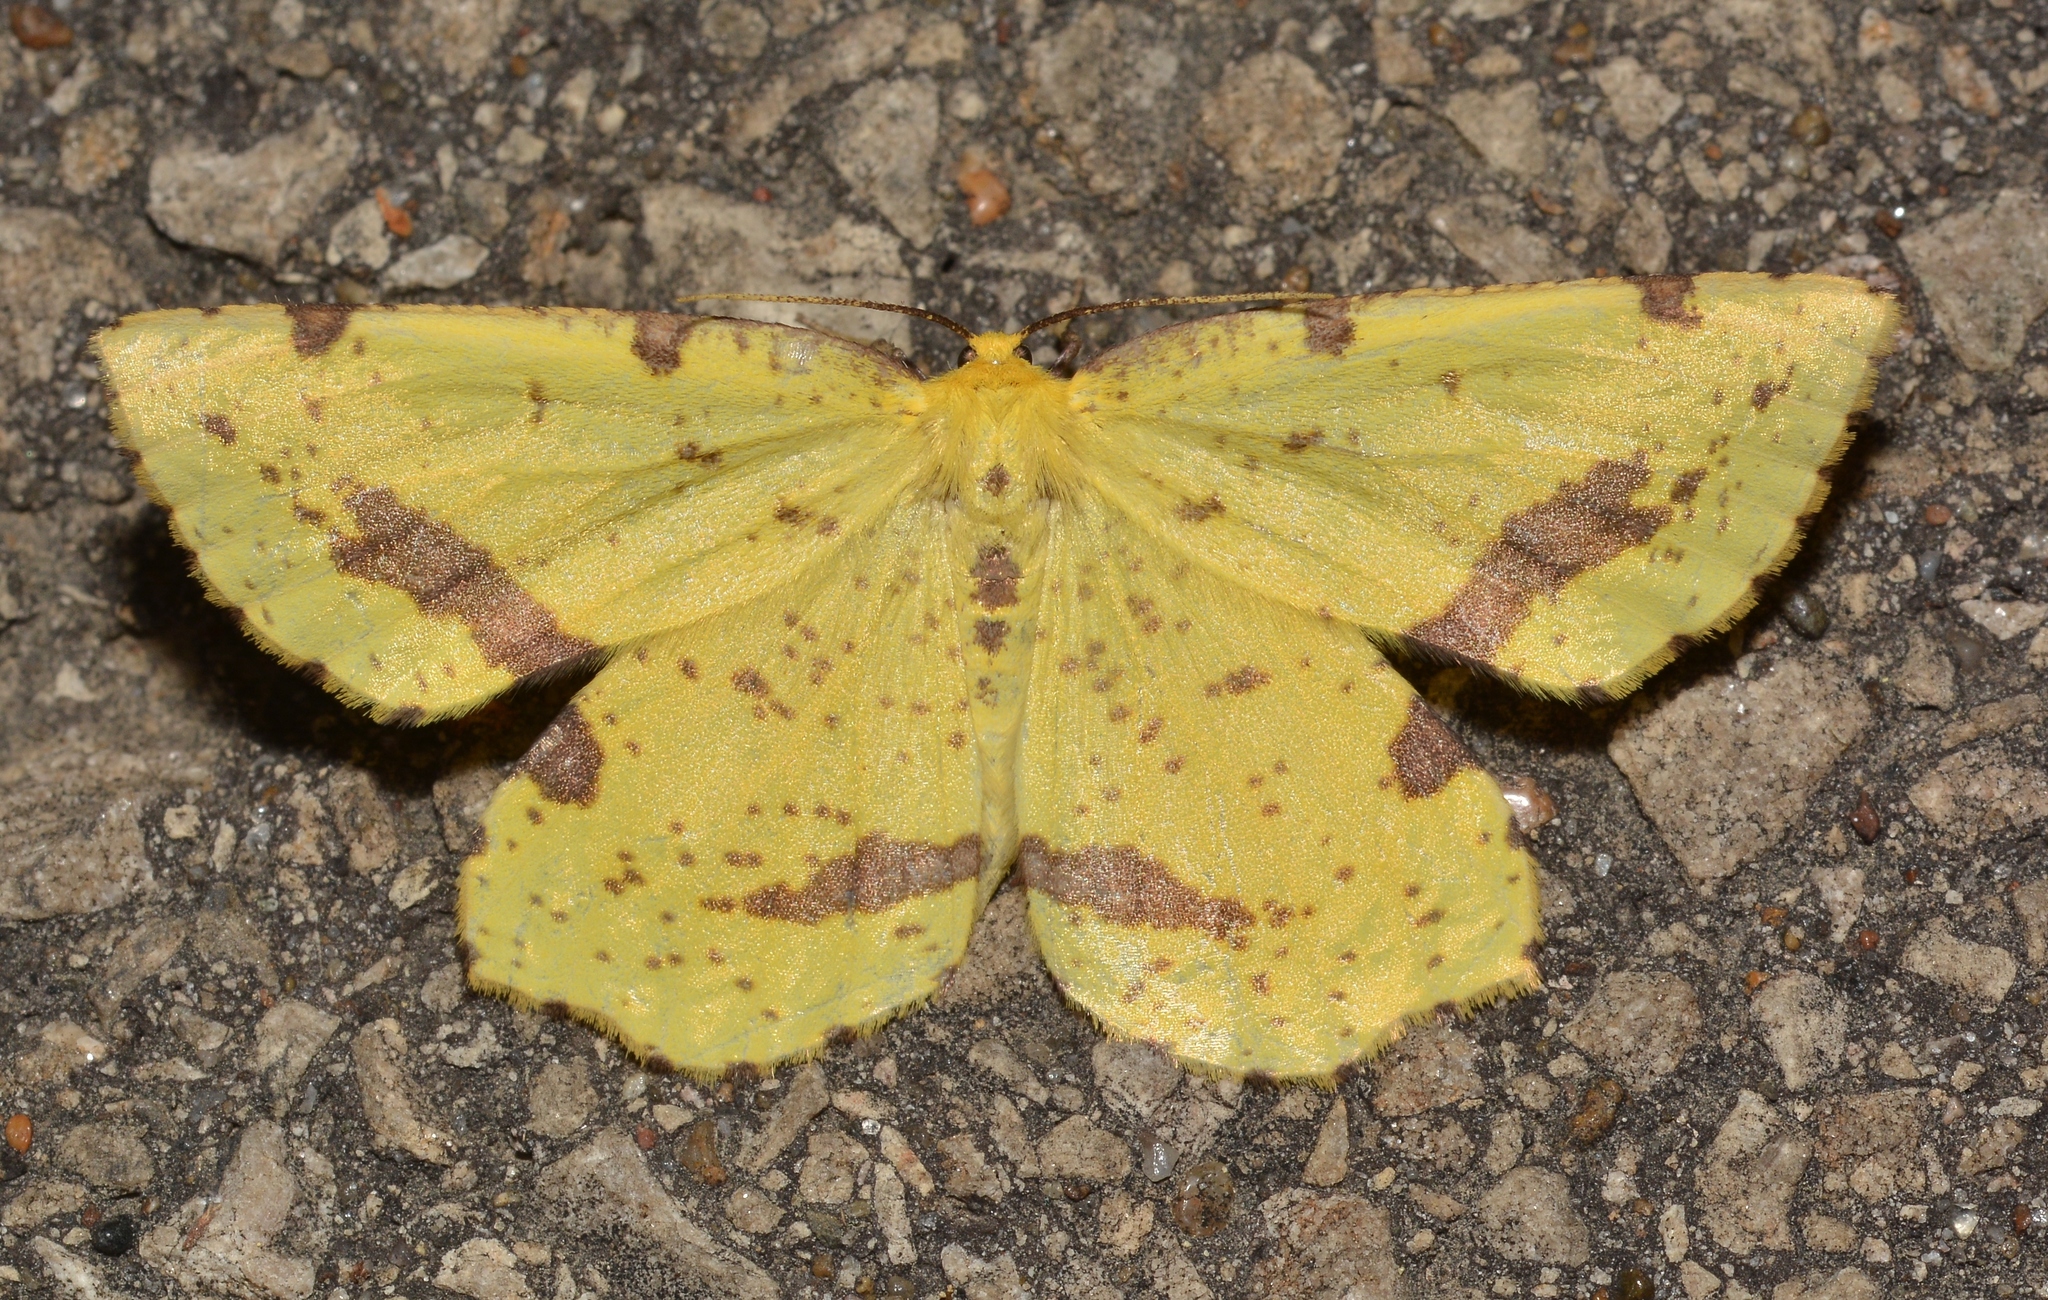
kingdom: Animalia
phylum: Arthropoda
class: Insecta
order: Lepidoptera
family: Geometridae
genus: Xanthotype
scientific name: Xanthotype
